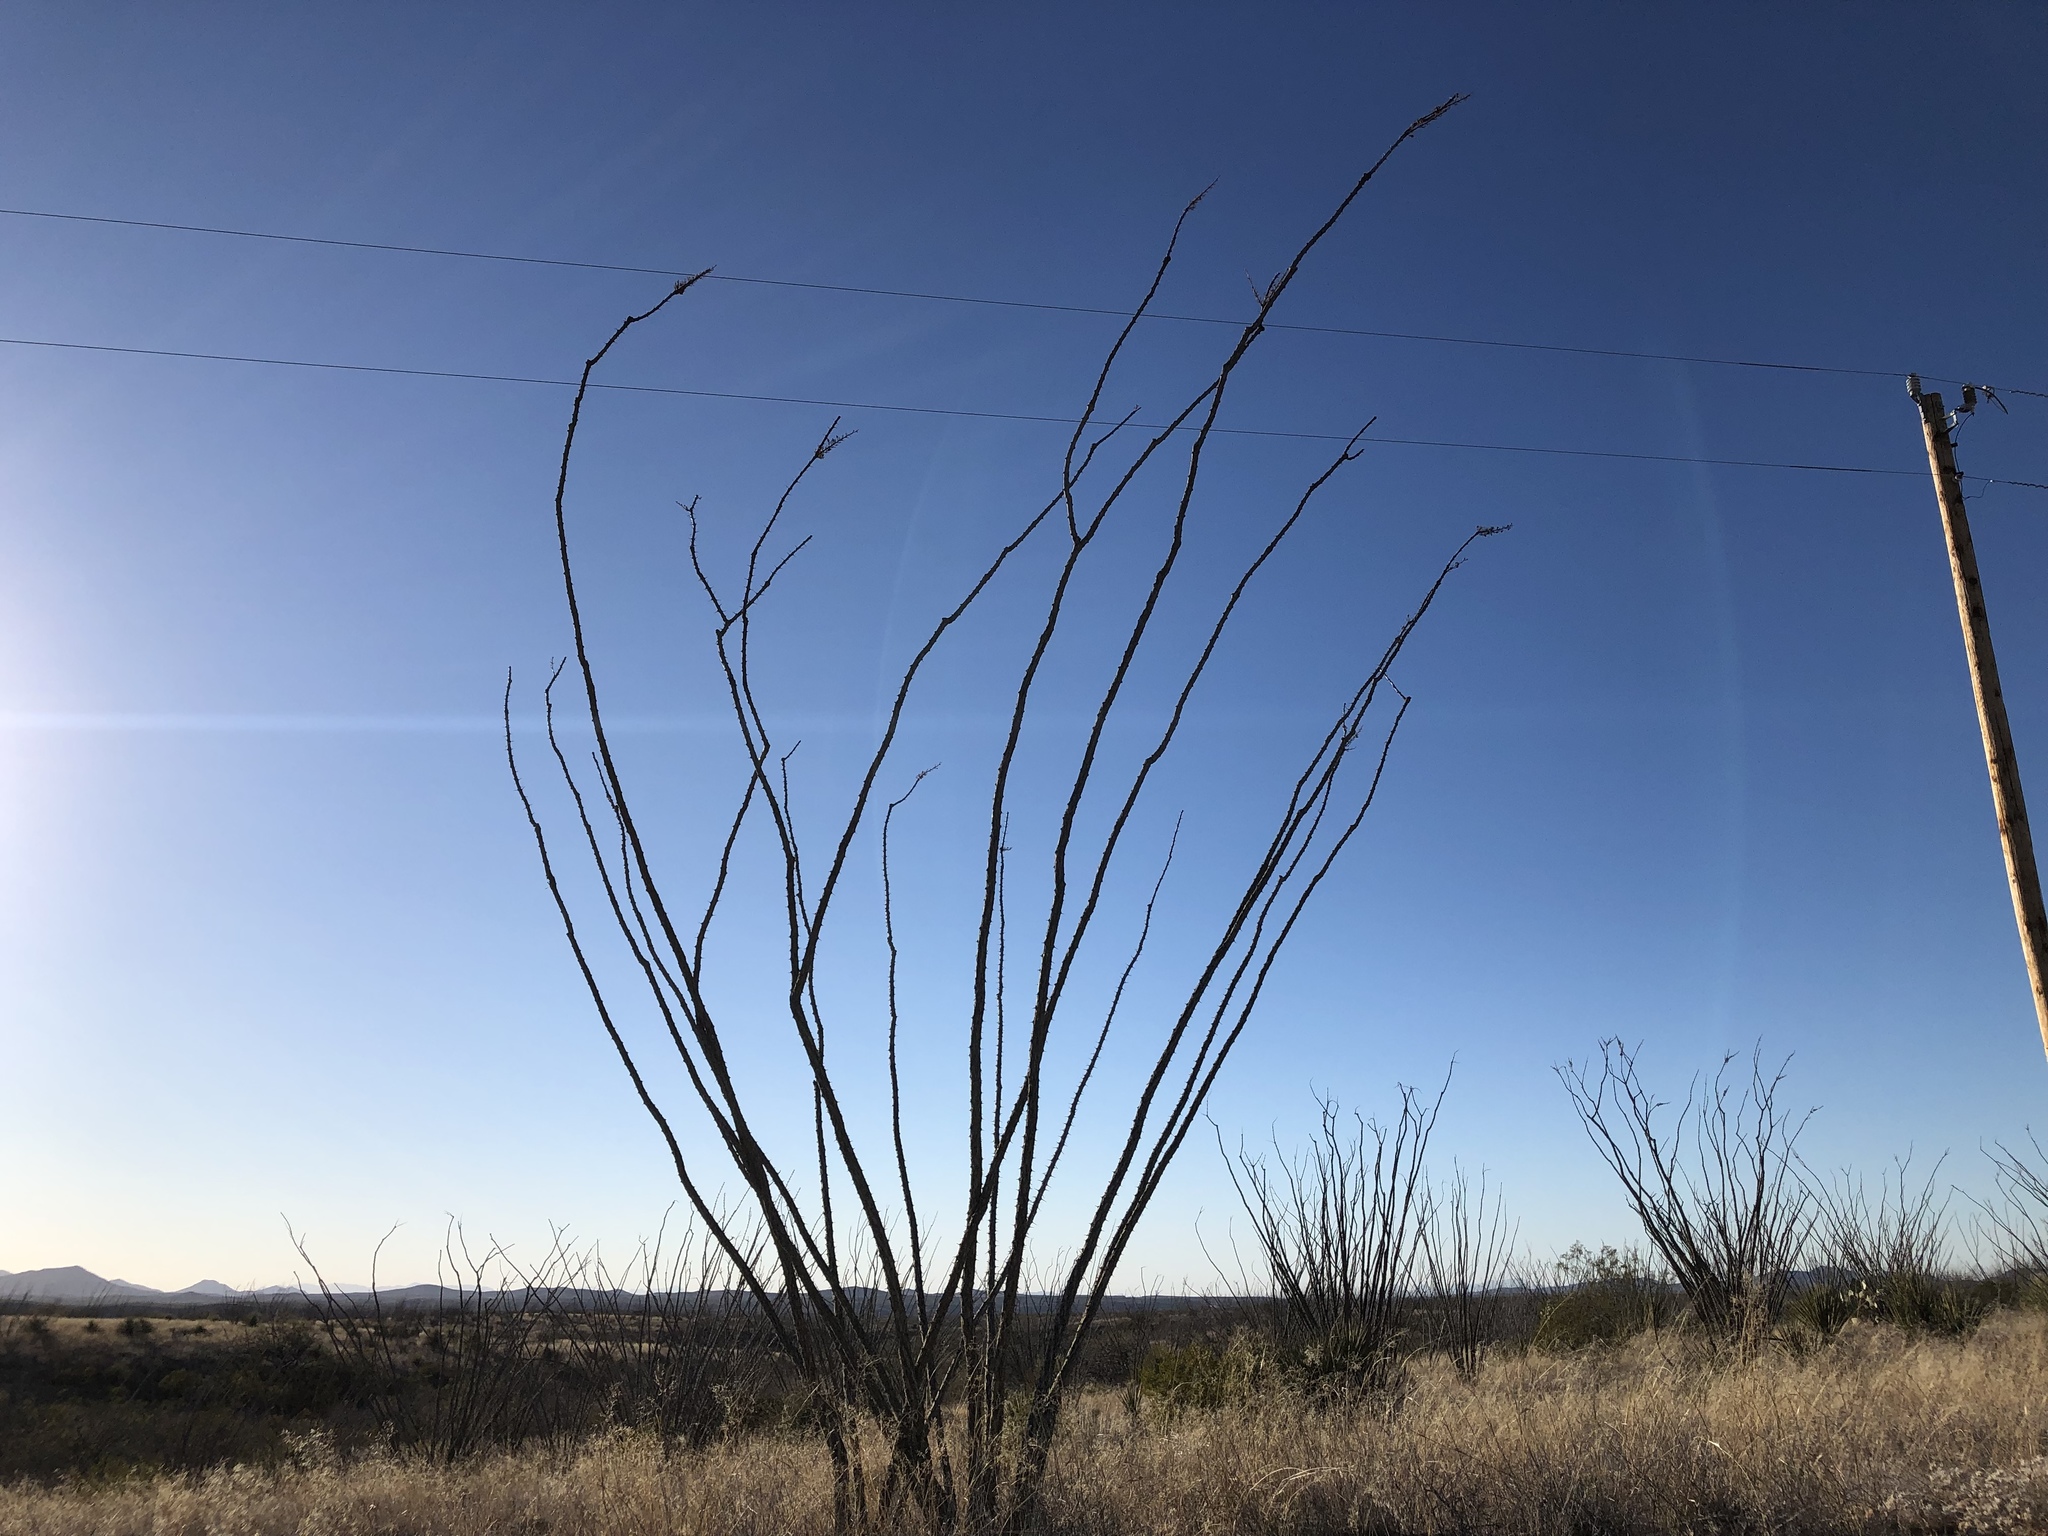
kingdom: Plantae
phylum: Tracheophyta
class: Magnoliopsida
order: Ericales
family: Fouquieriaceae
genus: Fouquieria
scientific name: Fouquieria splendens
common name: Vine-cactus
